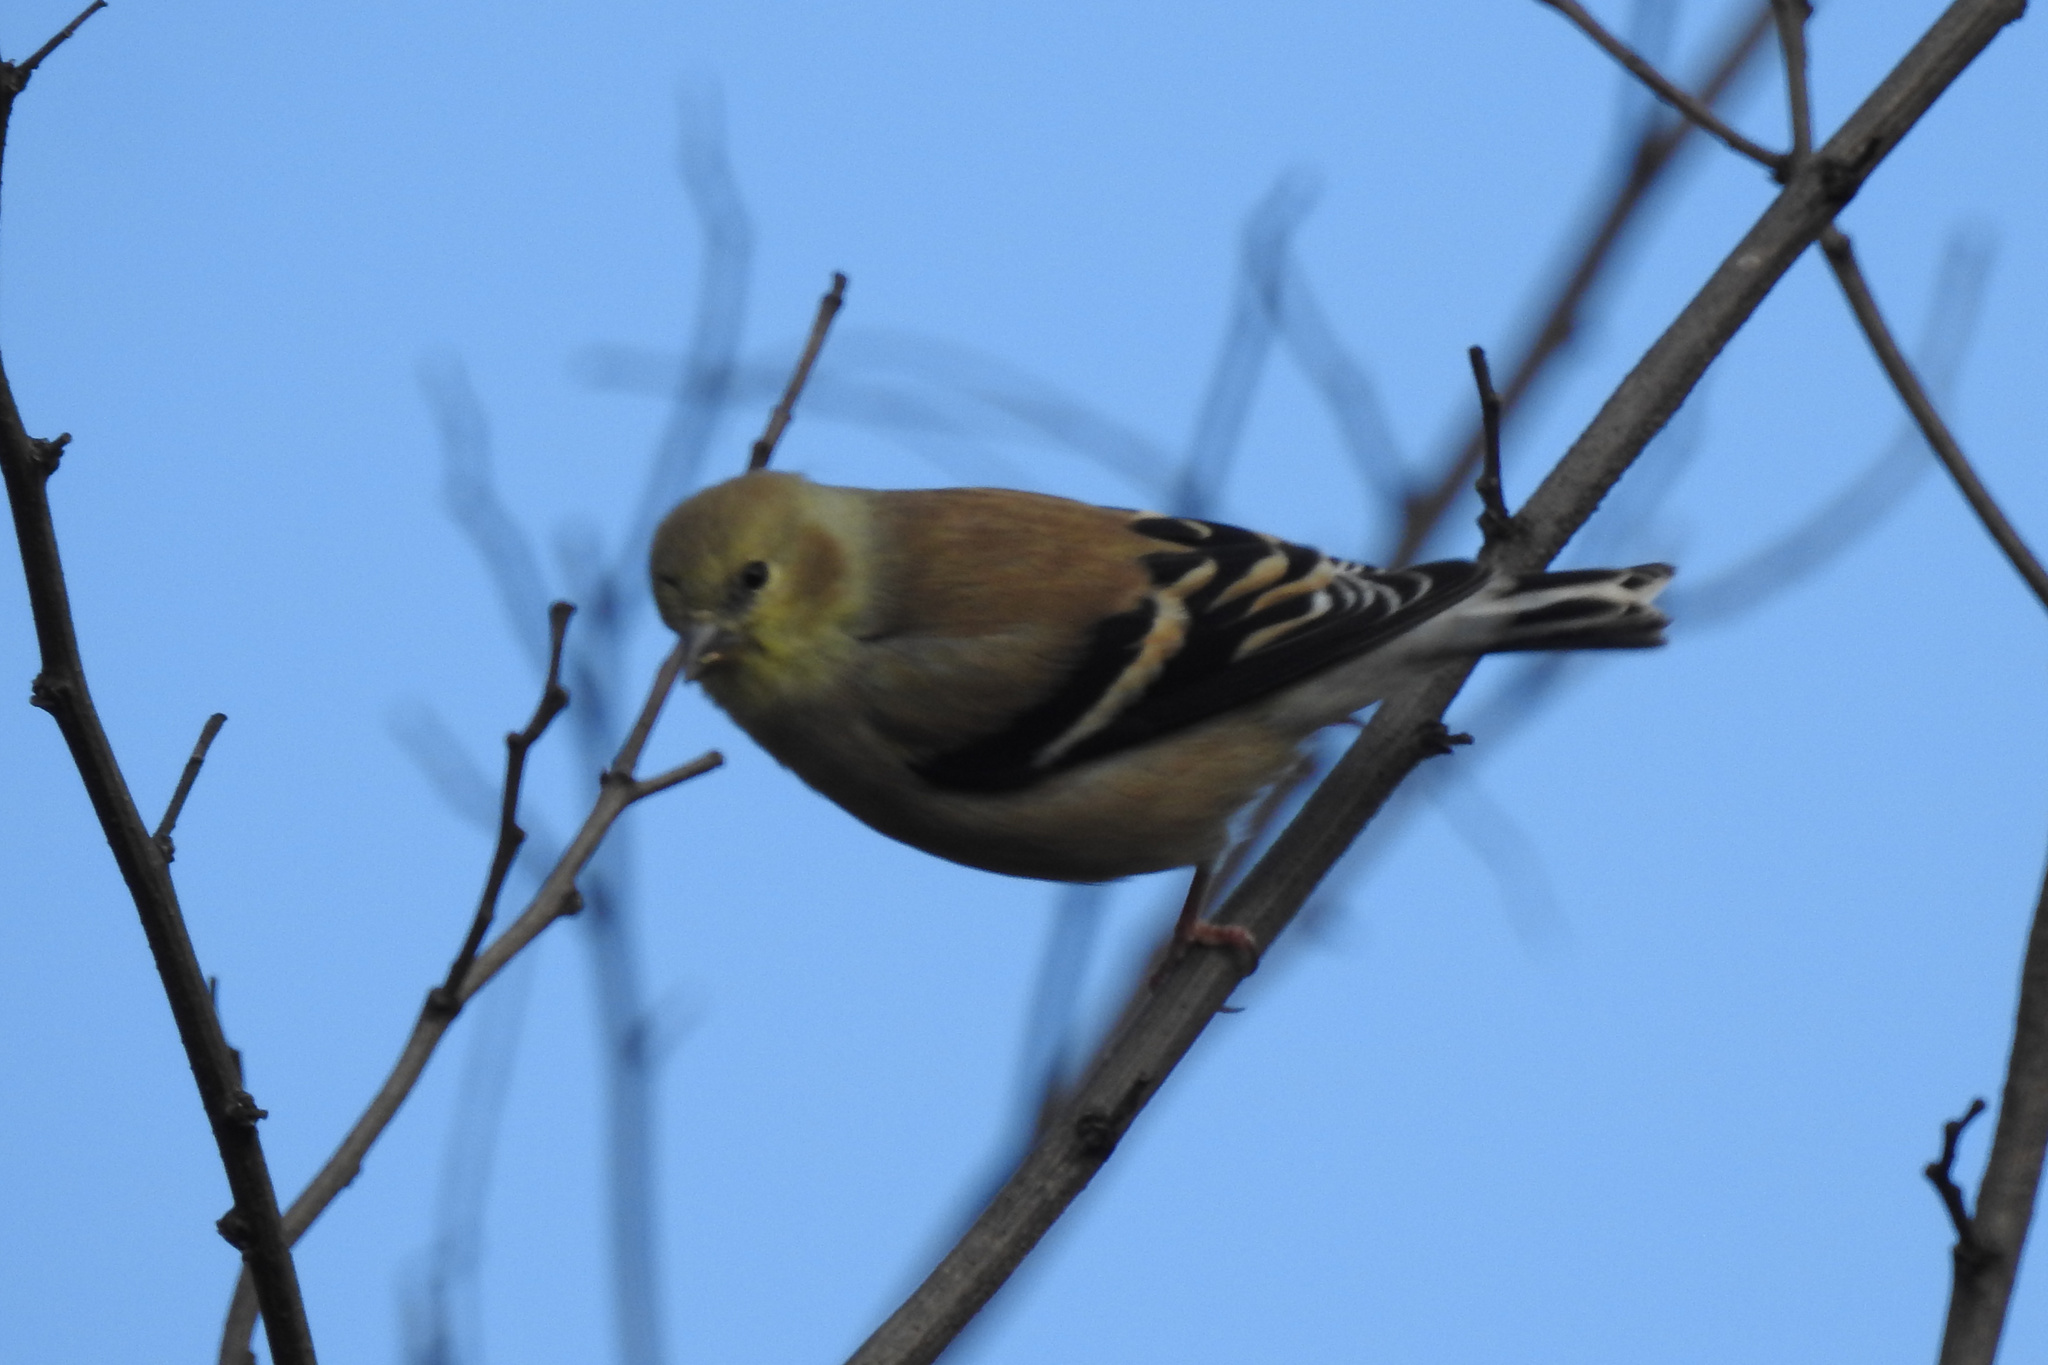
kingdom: Animalia
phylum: Chordata
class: Aves
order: Passeriformes
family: Fringillidae
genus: Spinus
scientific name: Spinus tristis
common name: American goldfinch
